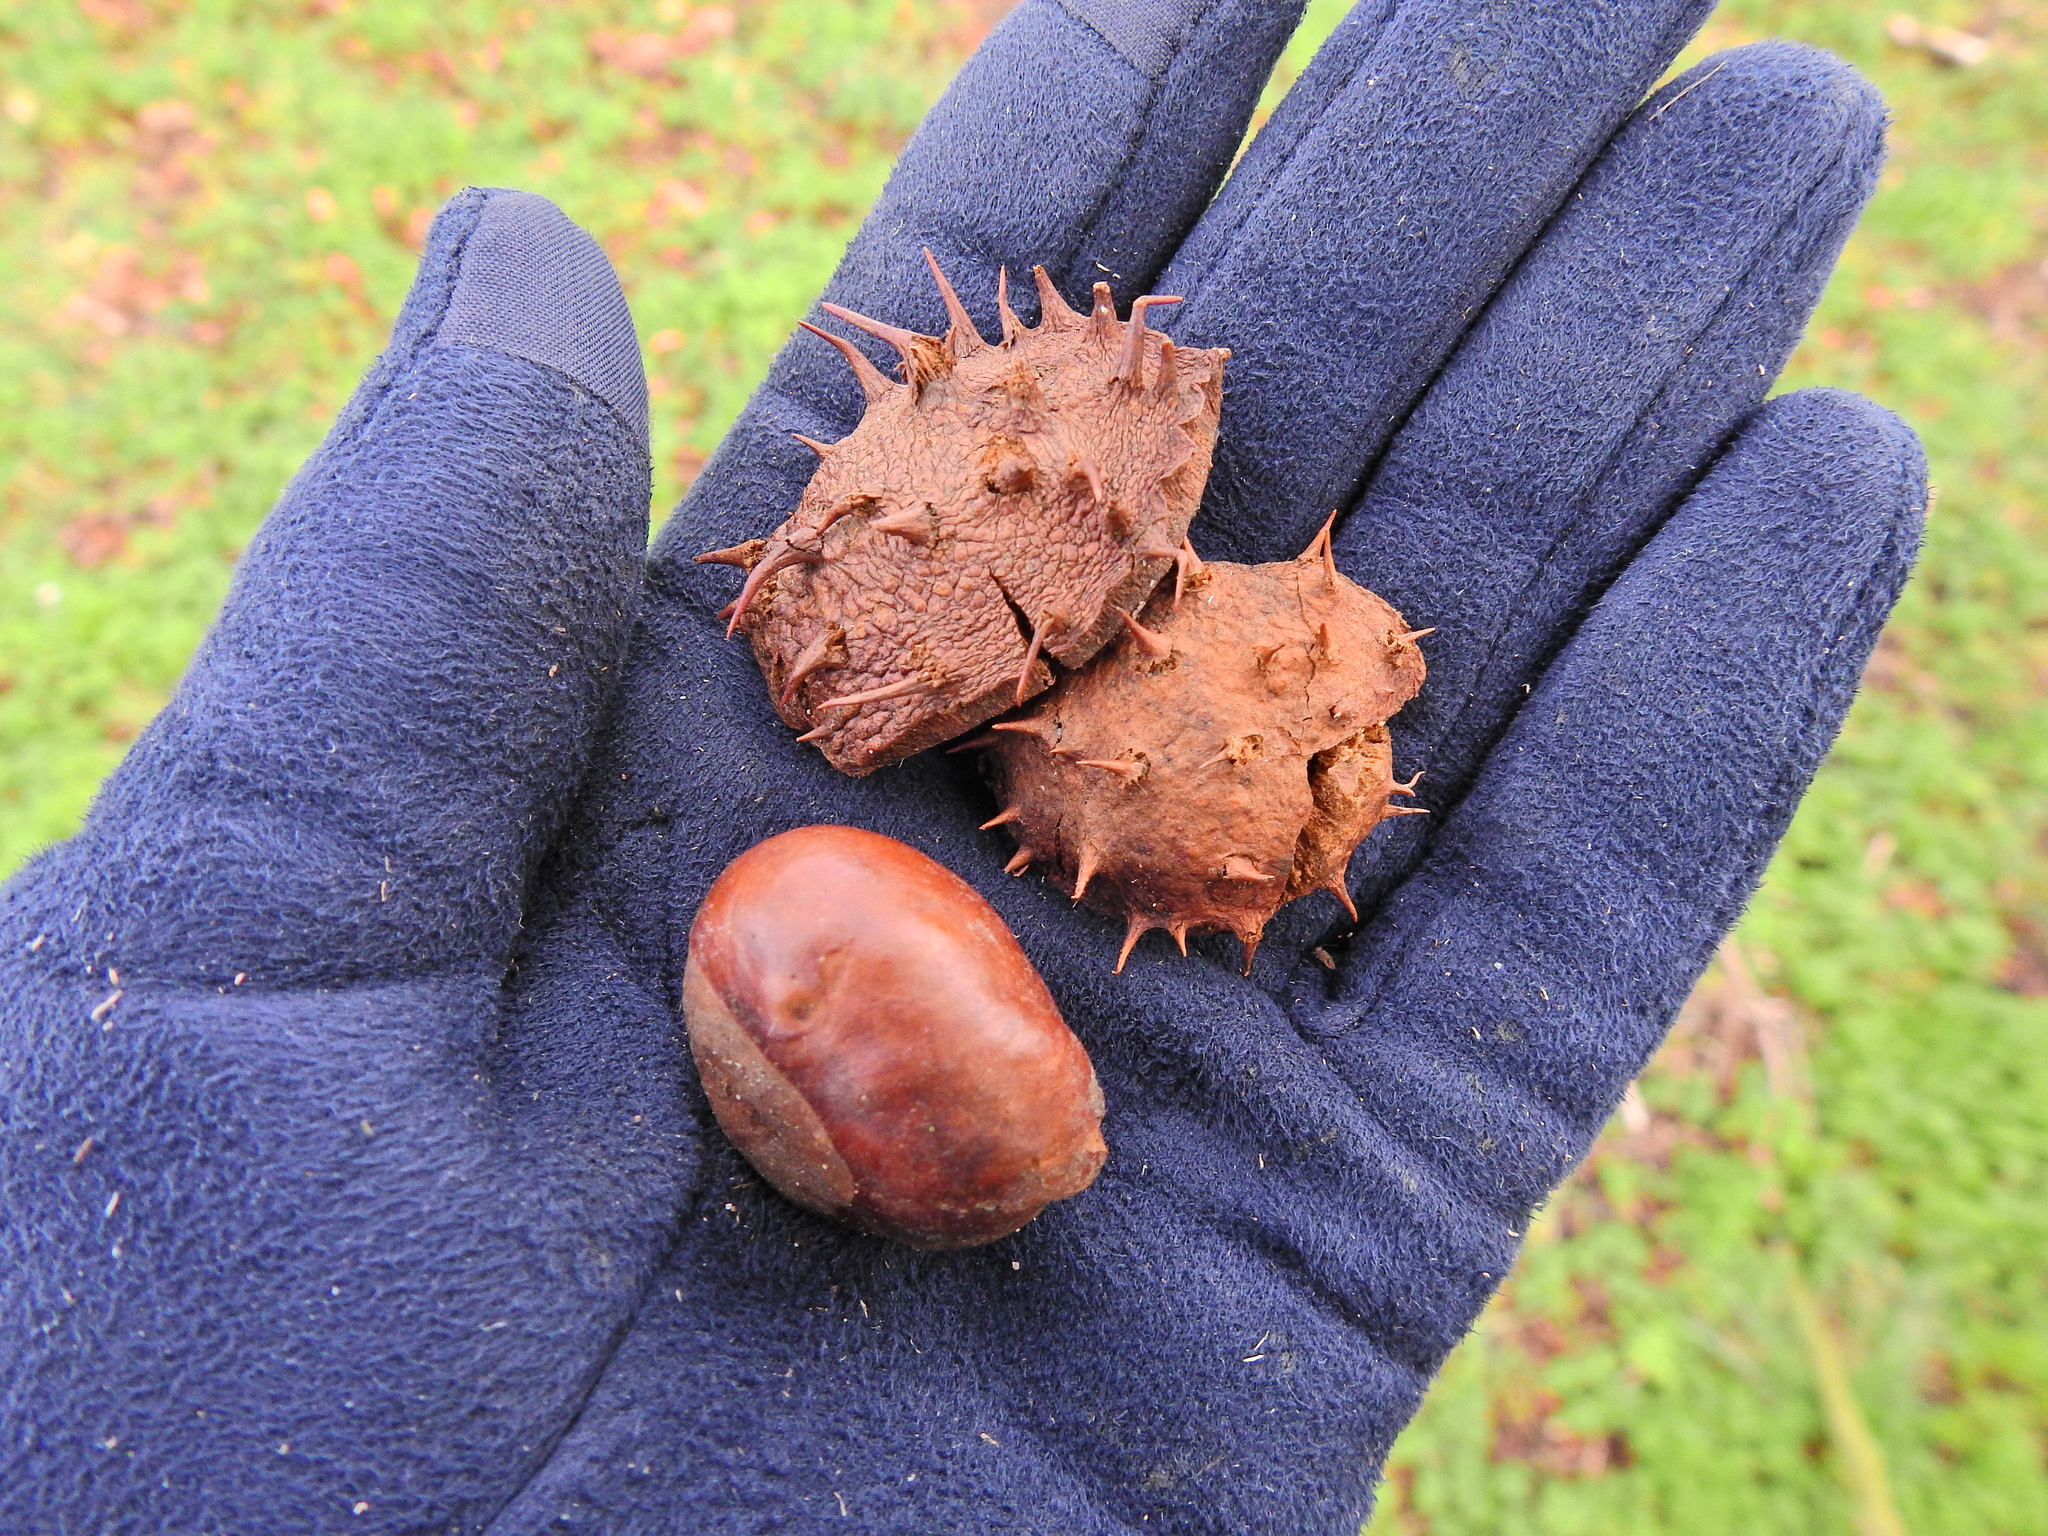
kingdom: Plantae
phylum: Tracheophyta
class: Magnoliopsida
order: Sapindales
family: Sapindaceae
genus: Aesculus
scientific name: Aesculus hippocastanum
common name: Horse-chestnut
